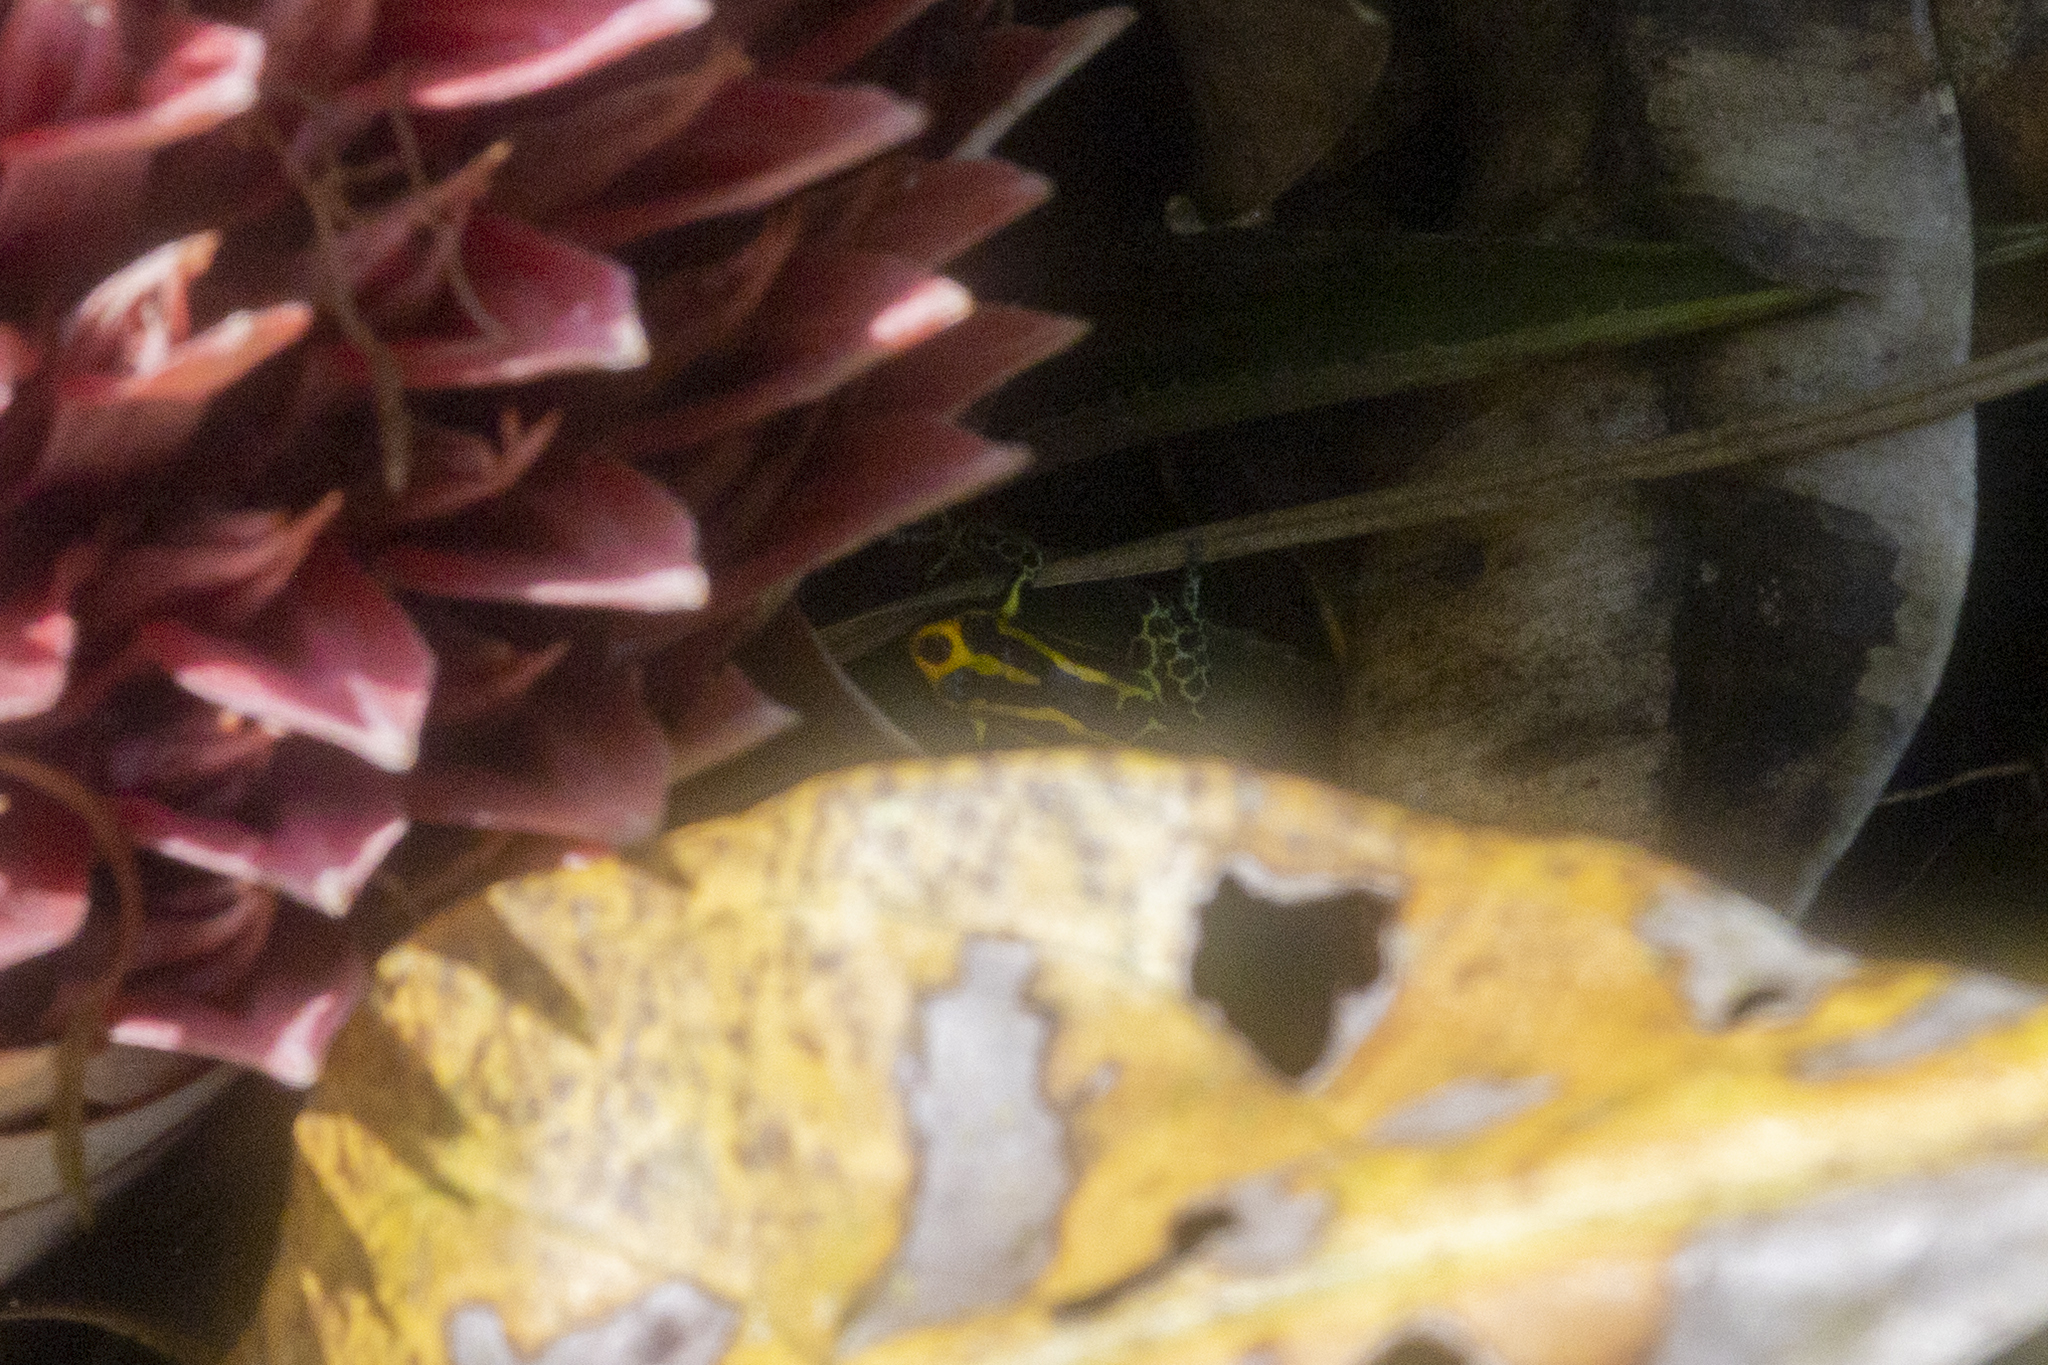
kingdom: Animalia
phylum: Chordata
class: Amphibia
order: Anura
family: Dendrobatidae
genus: Ranitomeya
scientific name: Ranitomeya amazonica
